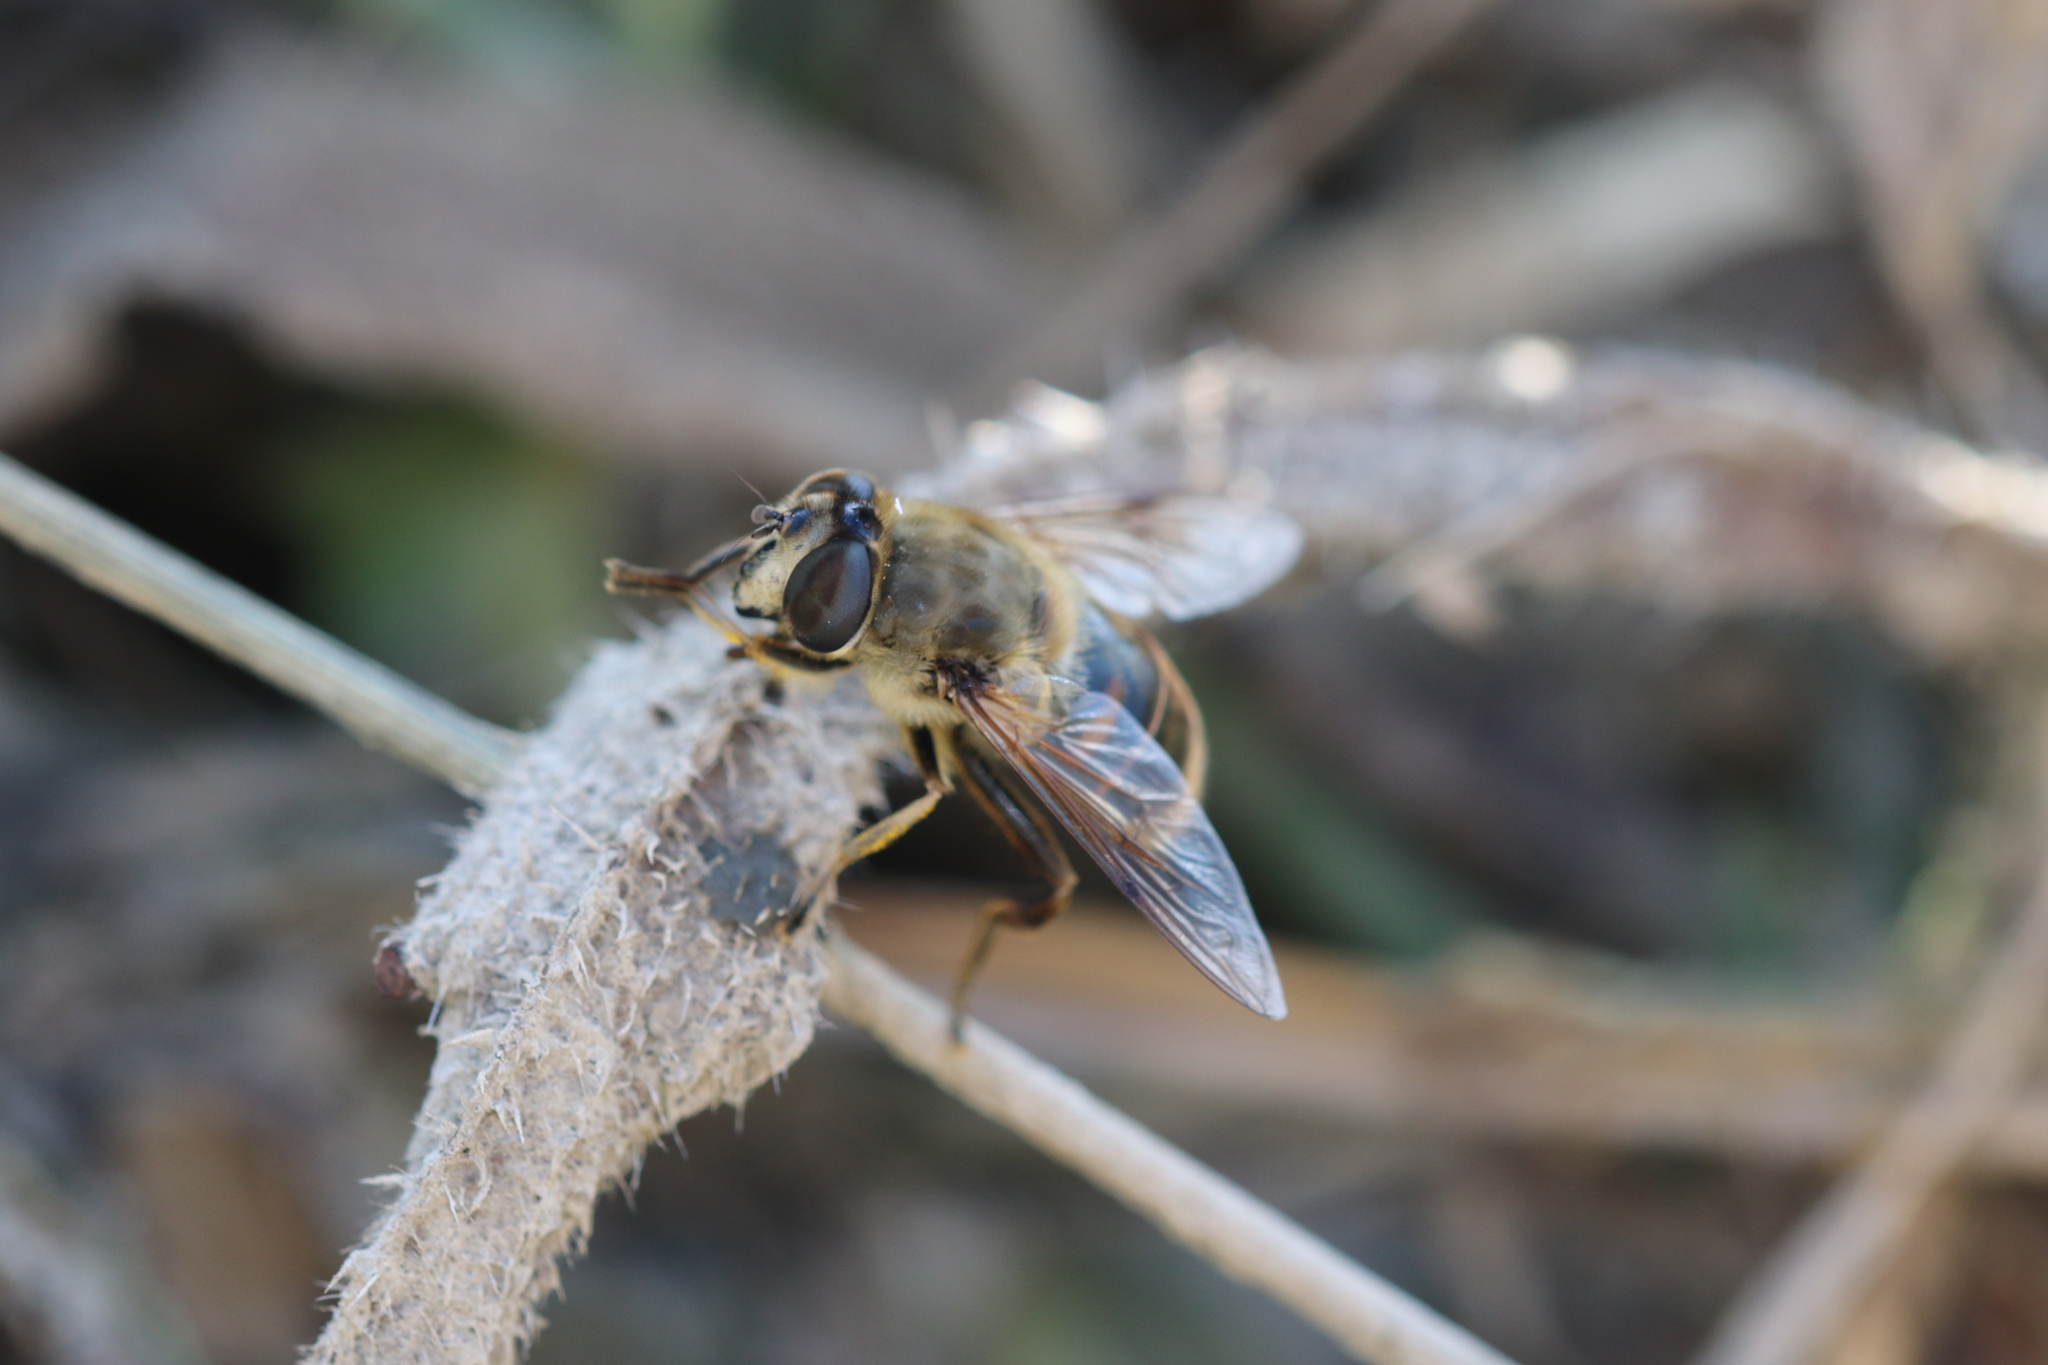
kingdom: Animalia
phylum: Arthropoda
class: Insecta
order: Diptera
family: Syrphidae
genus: Eristalis
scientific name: Eristalis tenax
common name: Drone fly
